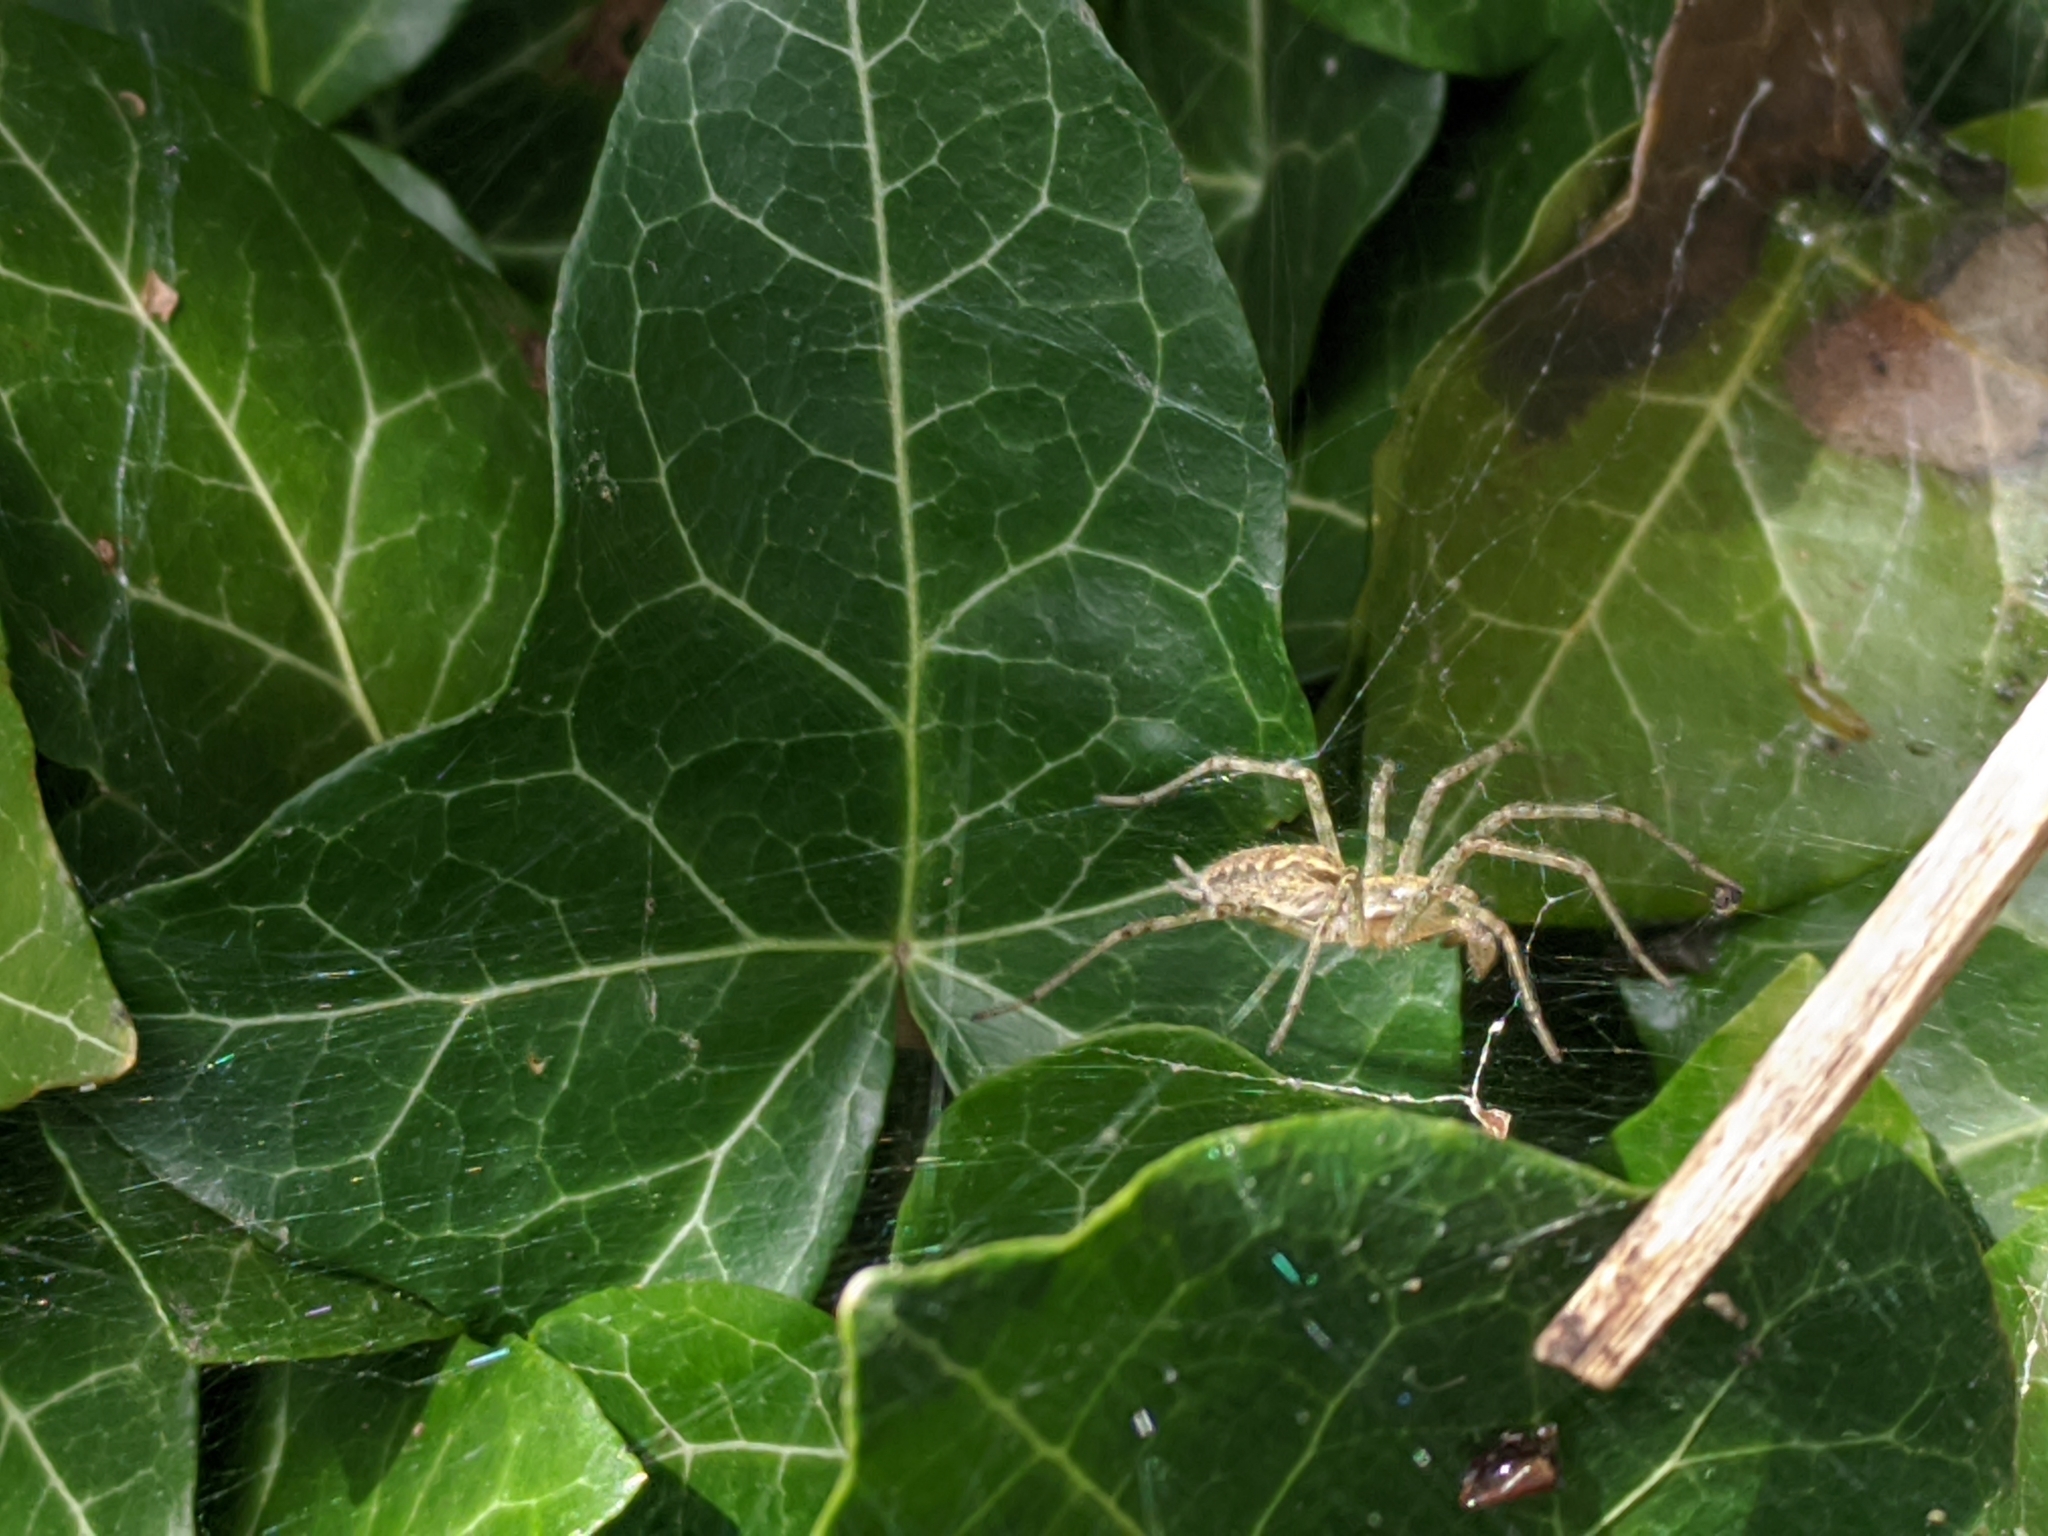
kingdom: Animalia
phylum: Arthropoda
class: Arachnida
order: Araneae
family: Agelenidae
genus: Allagelena
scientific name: Allagelena gracilens
